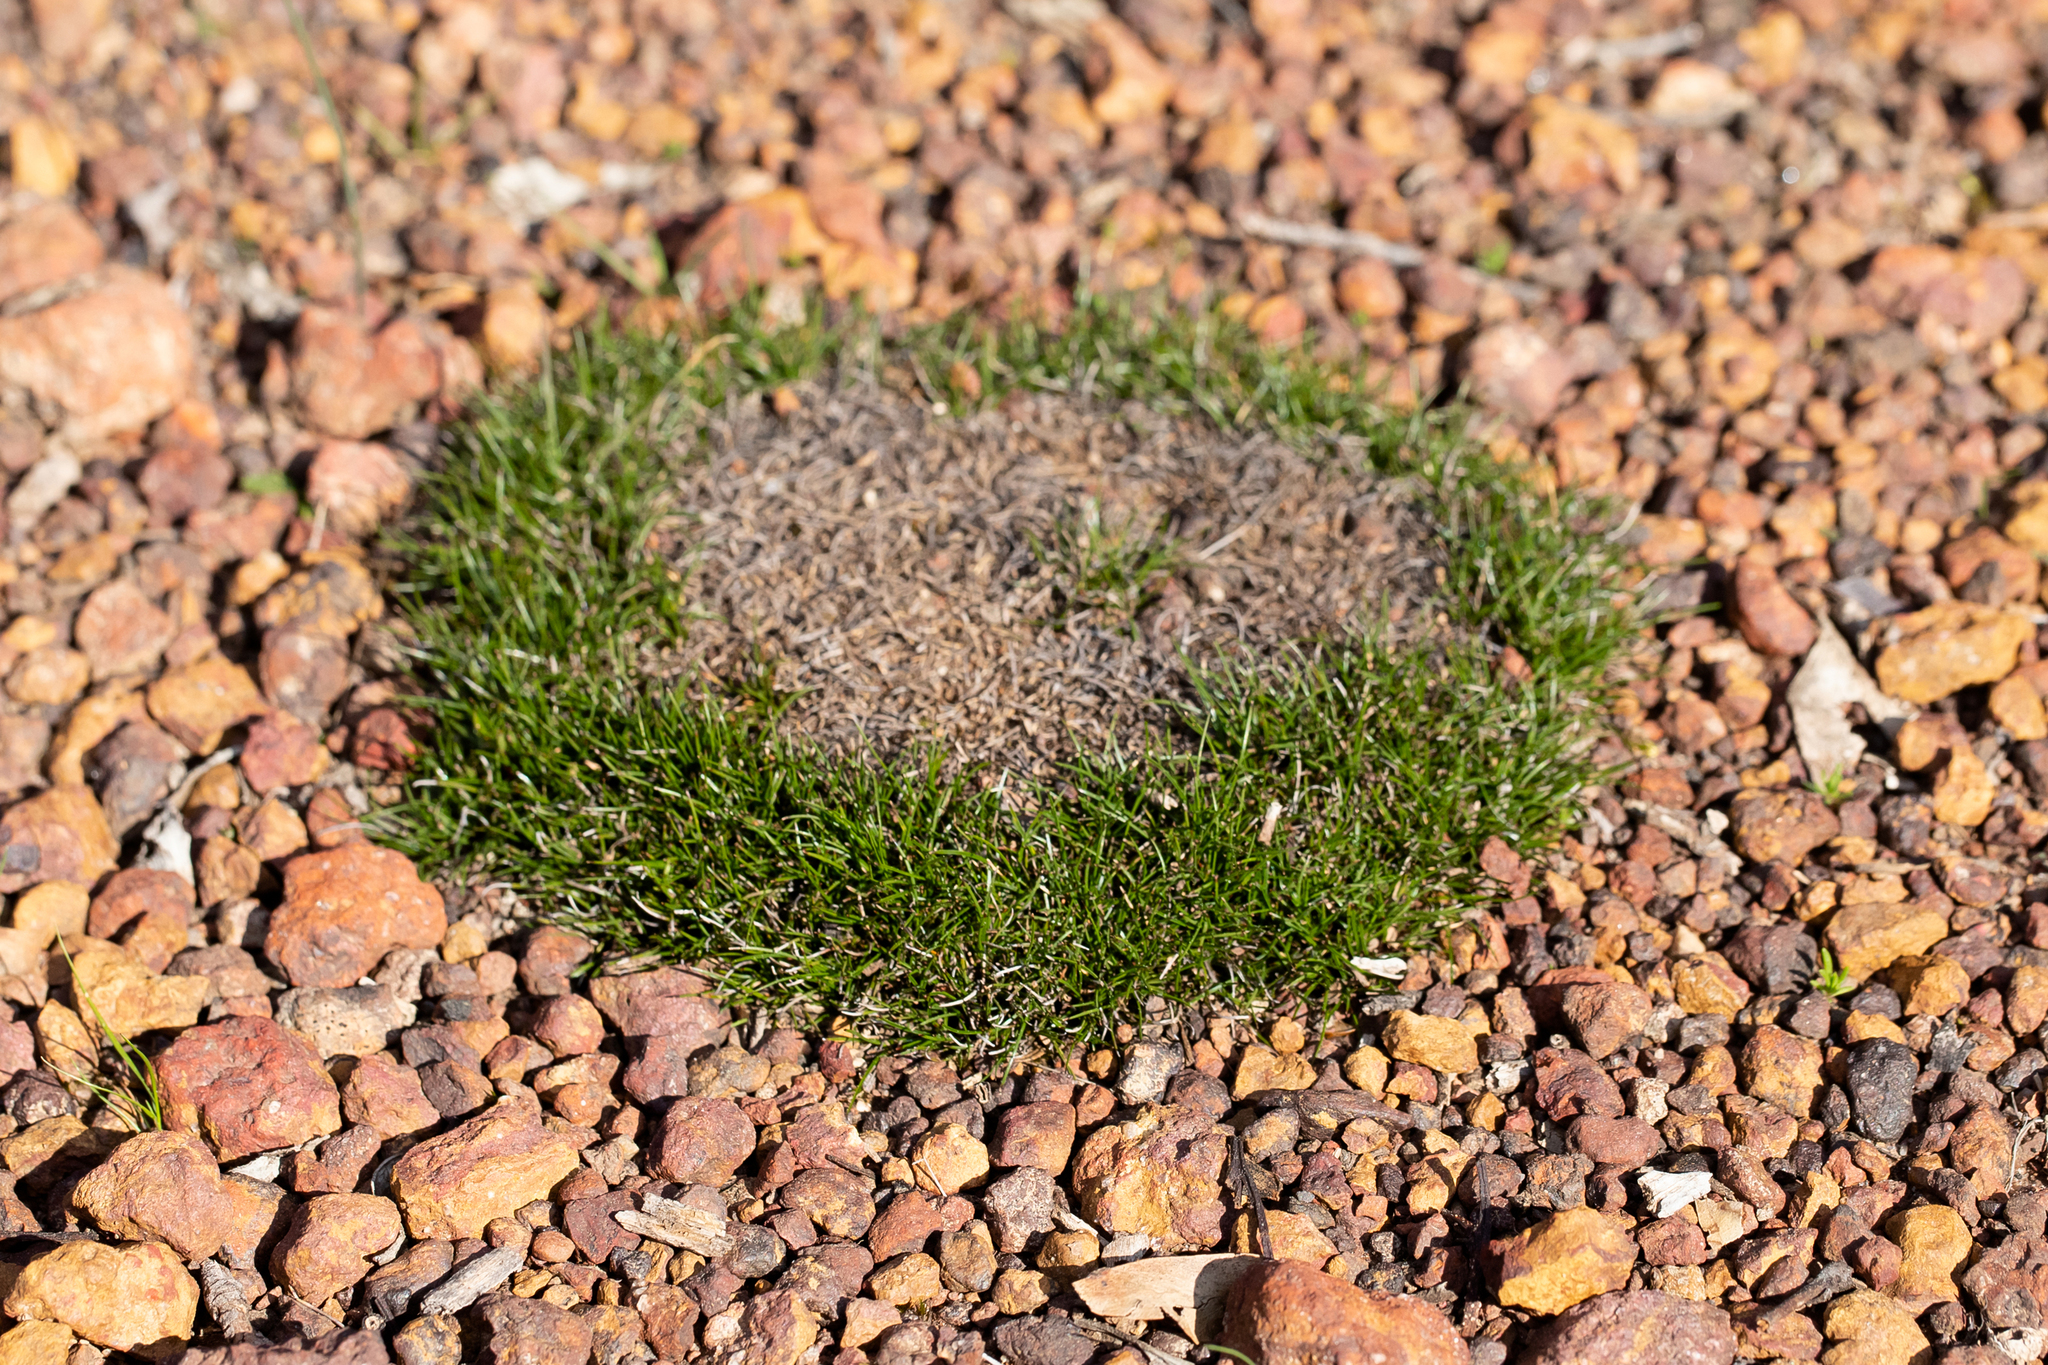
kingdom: Plantae
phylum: Tracheophyta
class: Liliopsida
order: Poales
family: Cyperaceae
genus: Schoenus
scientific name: Schoenus breviculmis
